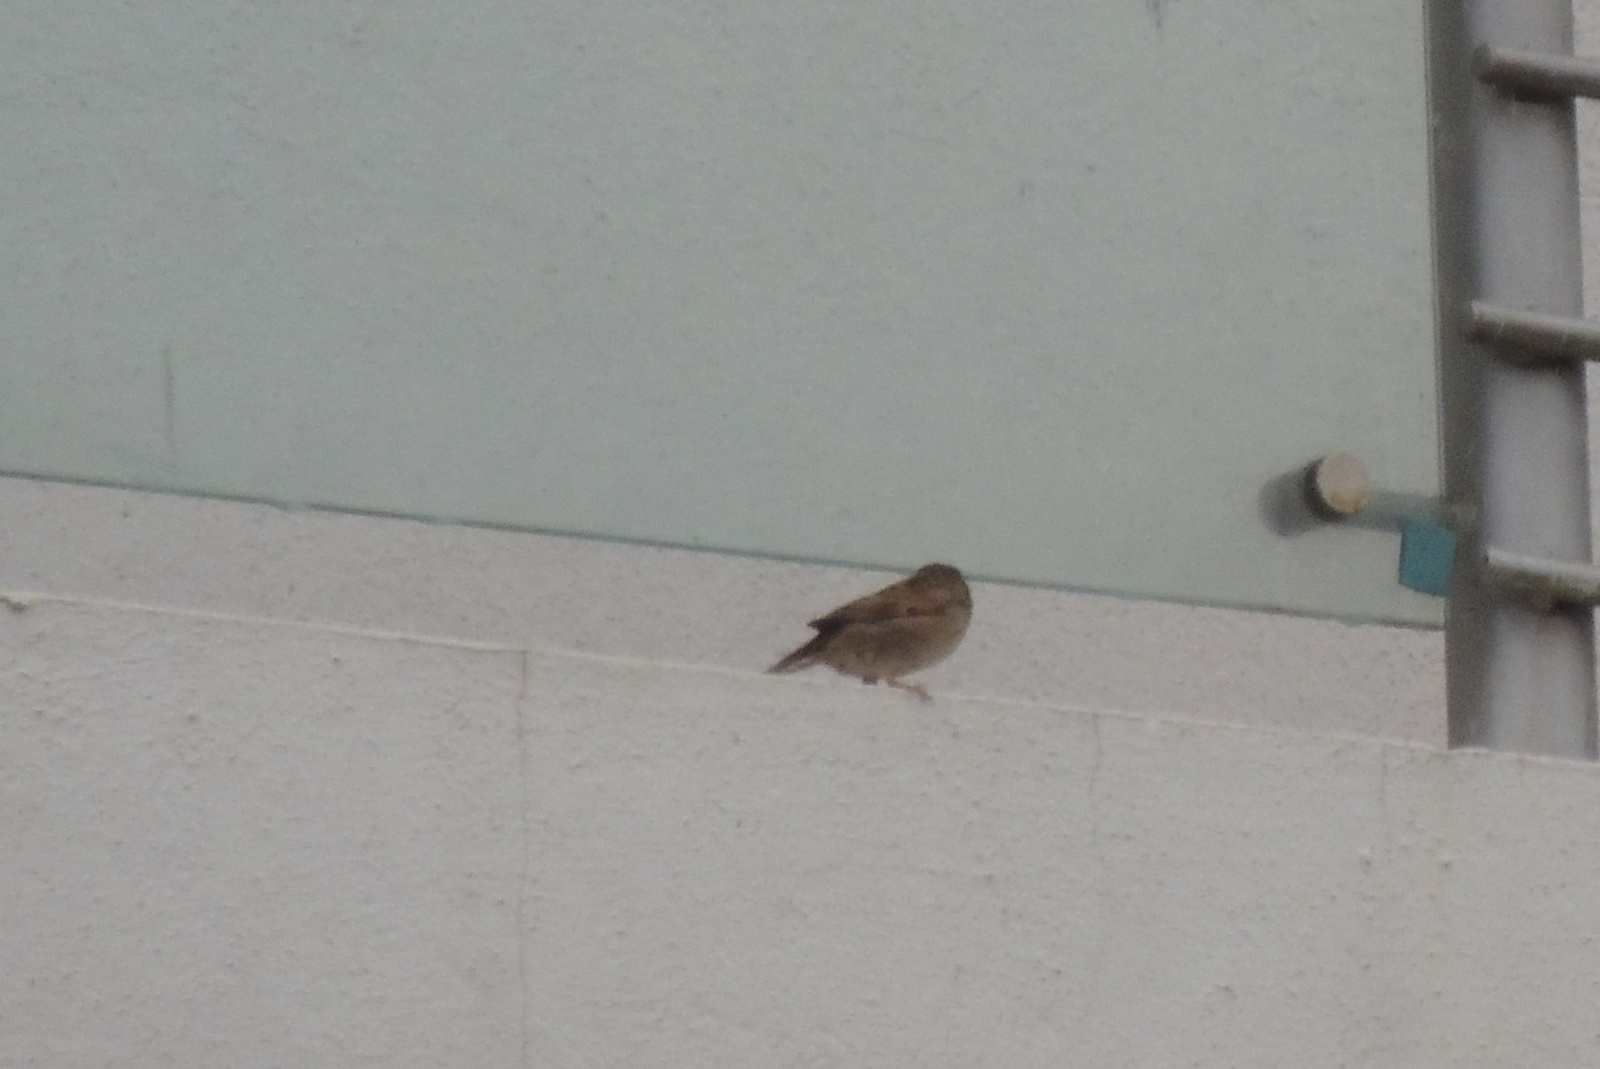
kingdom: Animalia
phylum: Chordata
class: Aves
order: Passeriformes
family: Passeridae
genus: Passer
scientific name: Passer domesticus
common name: House sparrow
